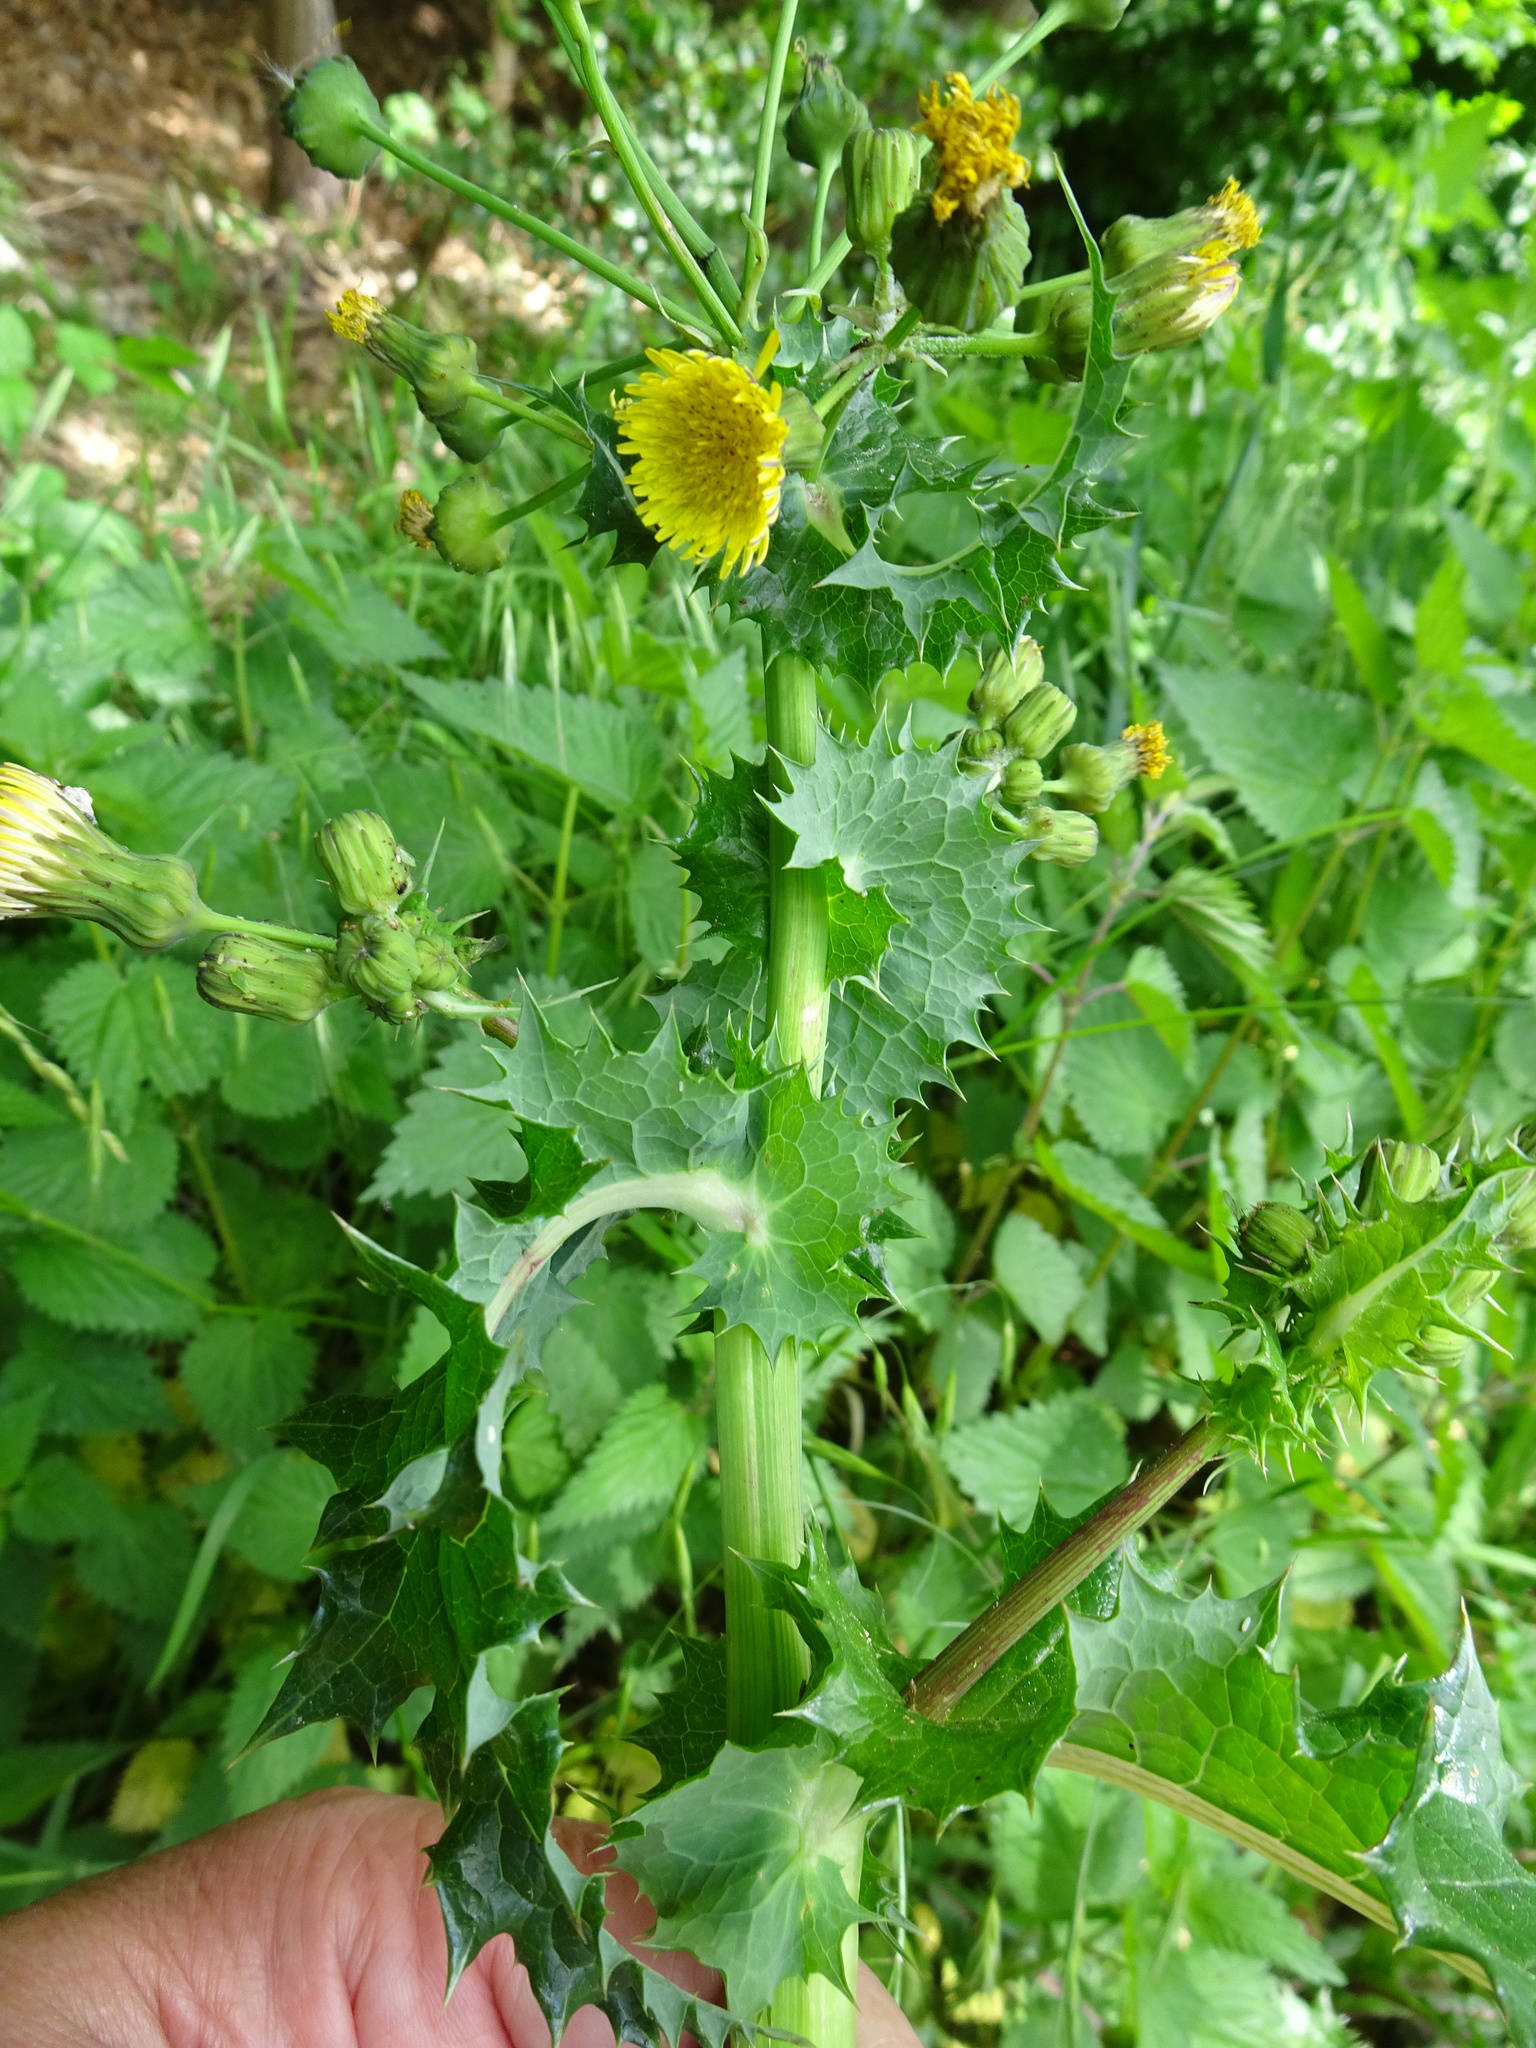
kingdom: Plantae
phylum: Tracheophyta
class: Magnoliopsida
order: Asterales
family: Asteraceae
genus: Sonchus
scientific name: Sonchus asper
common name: Prickly sow-thistle
